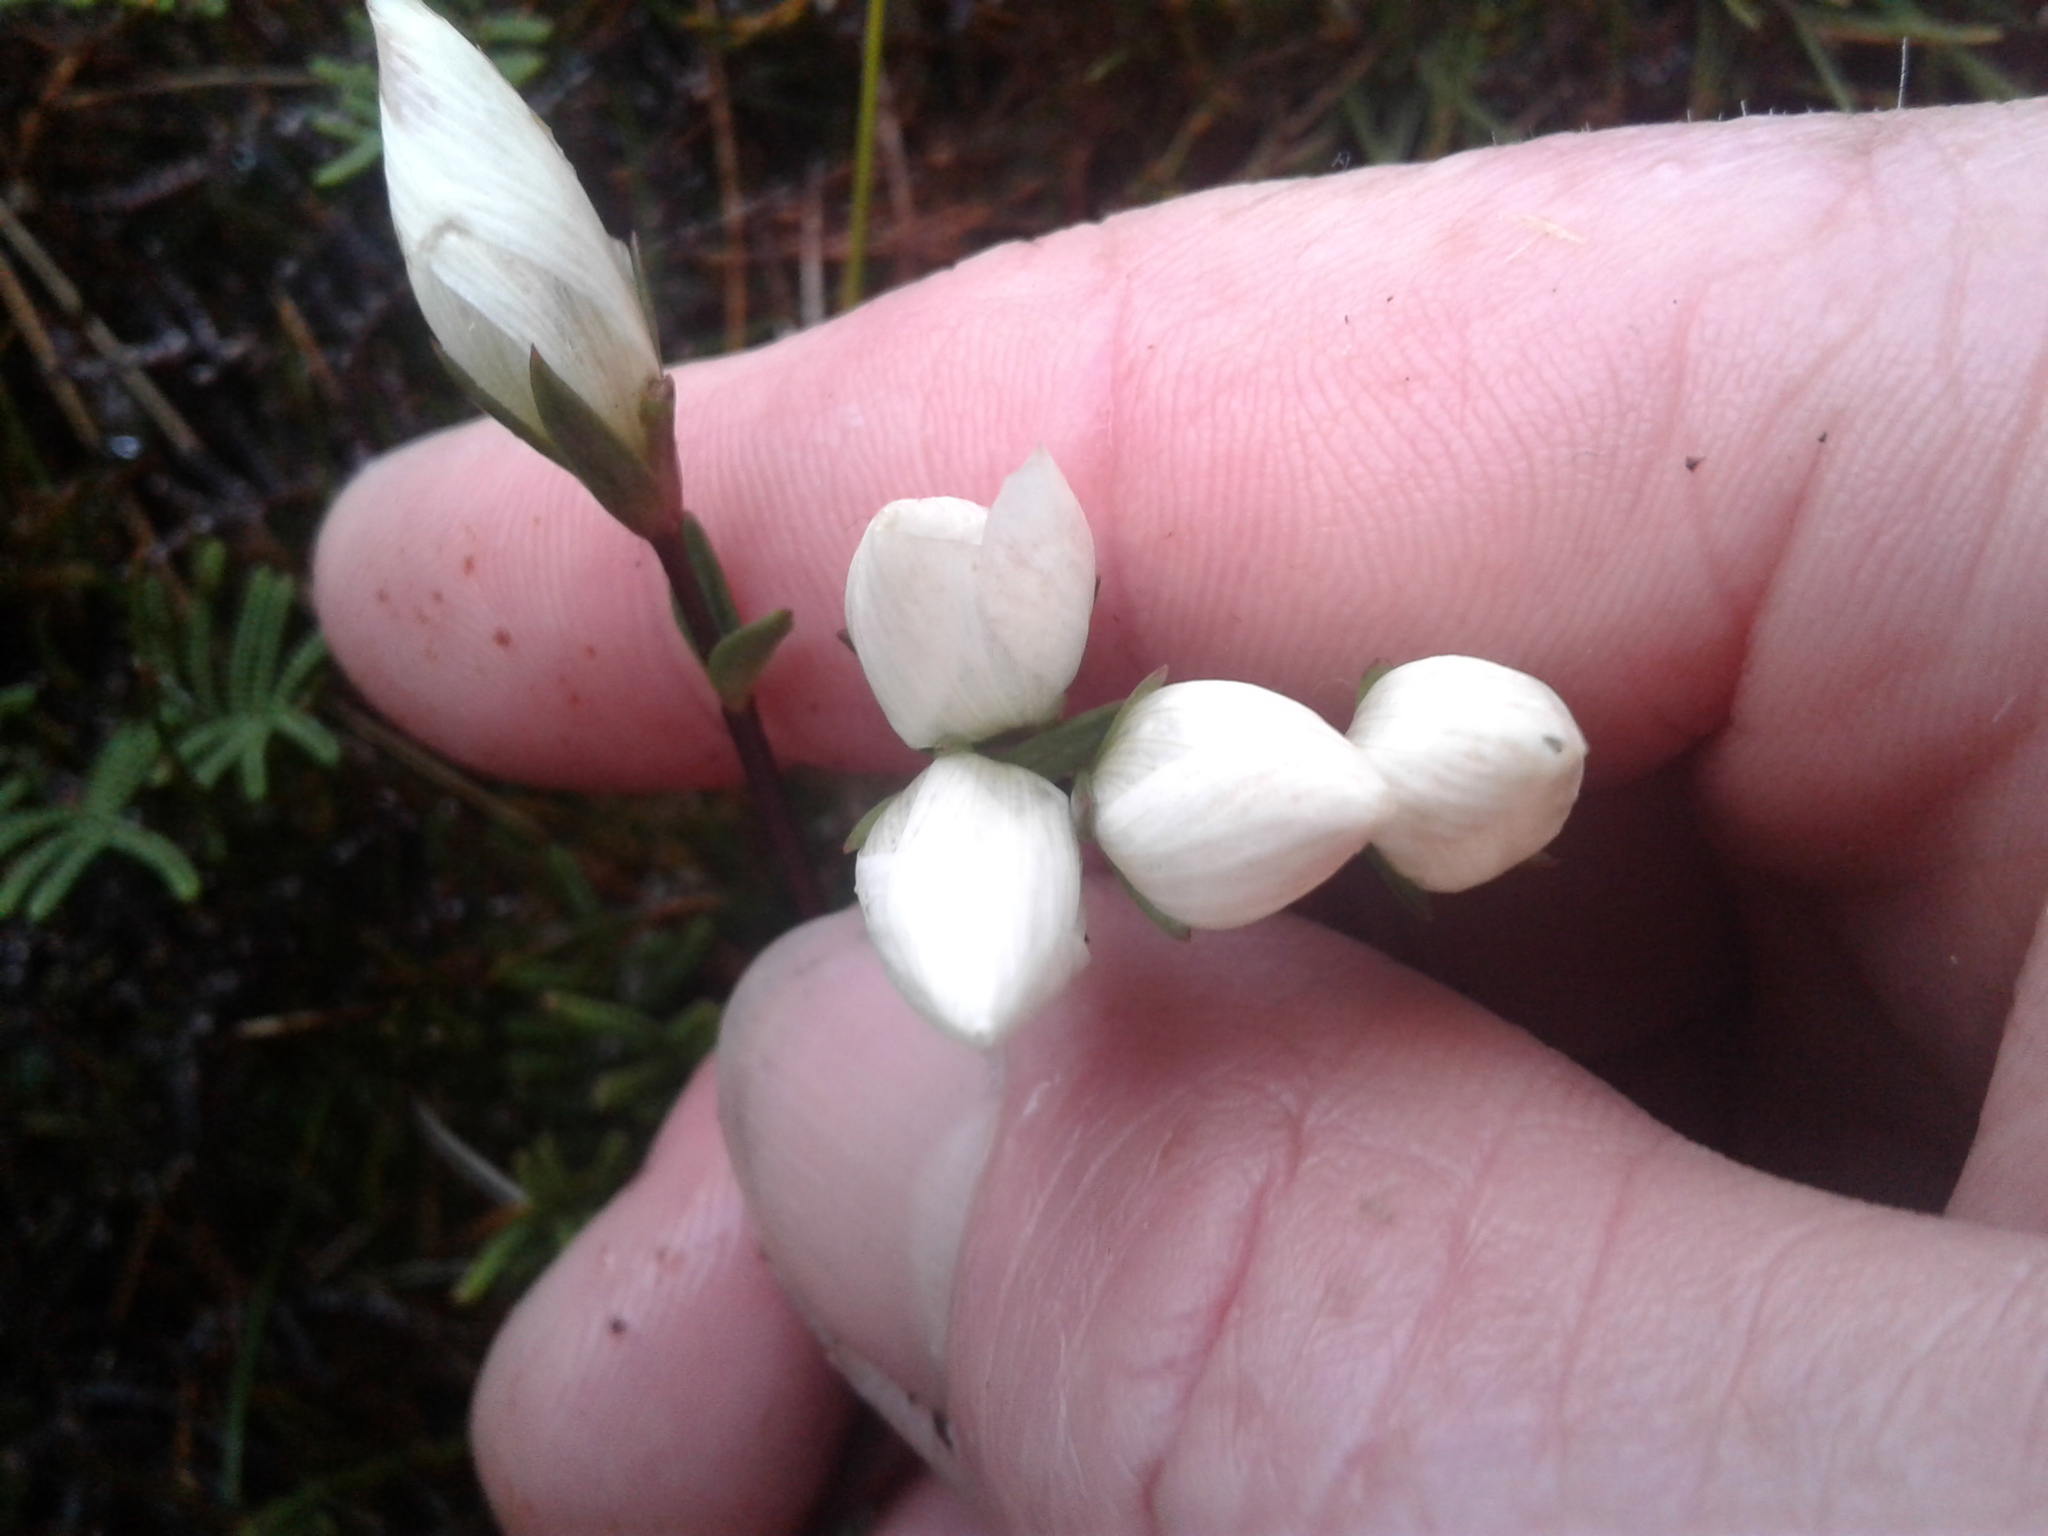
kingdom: Plantae
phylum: Tracheophyta
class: Magnoliopsida
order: Gentianales
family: Gentianaceae
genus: Gentianella
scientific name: Gentianella montana
